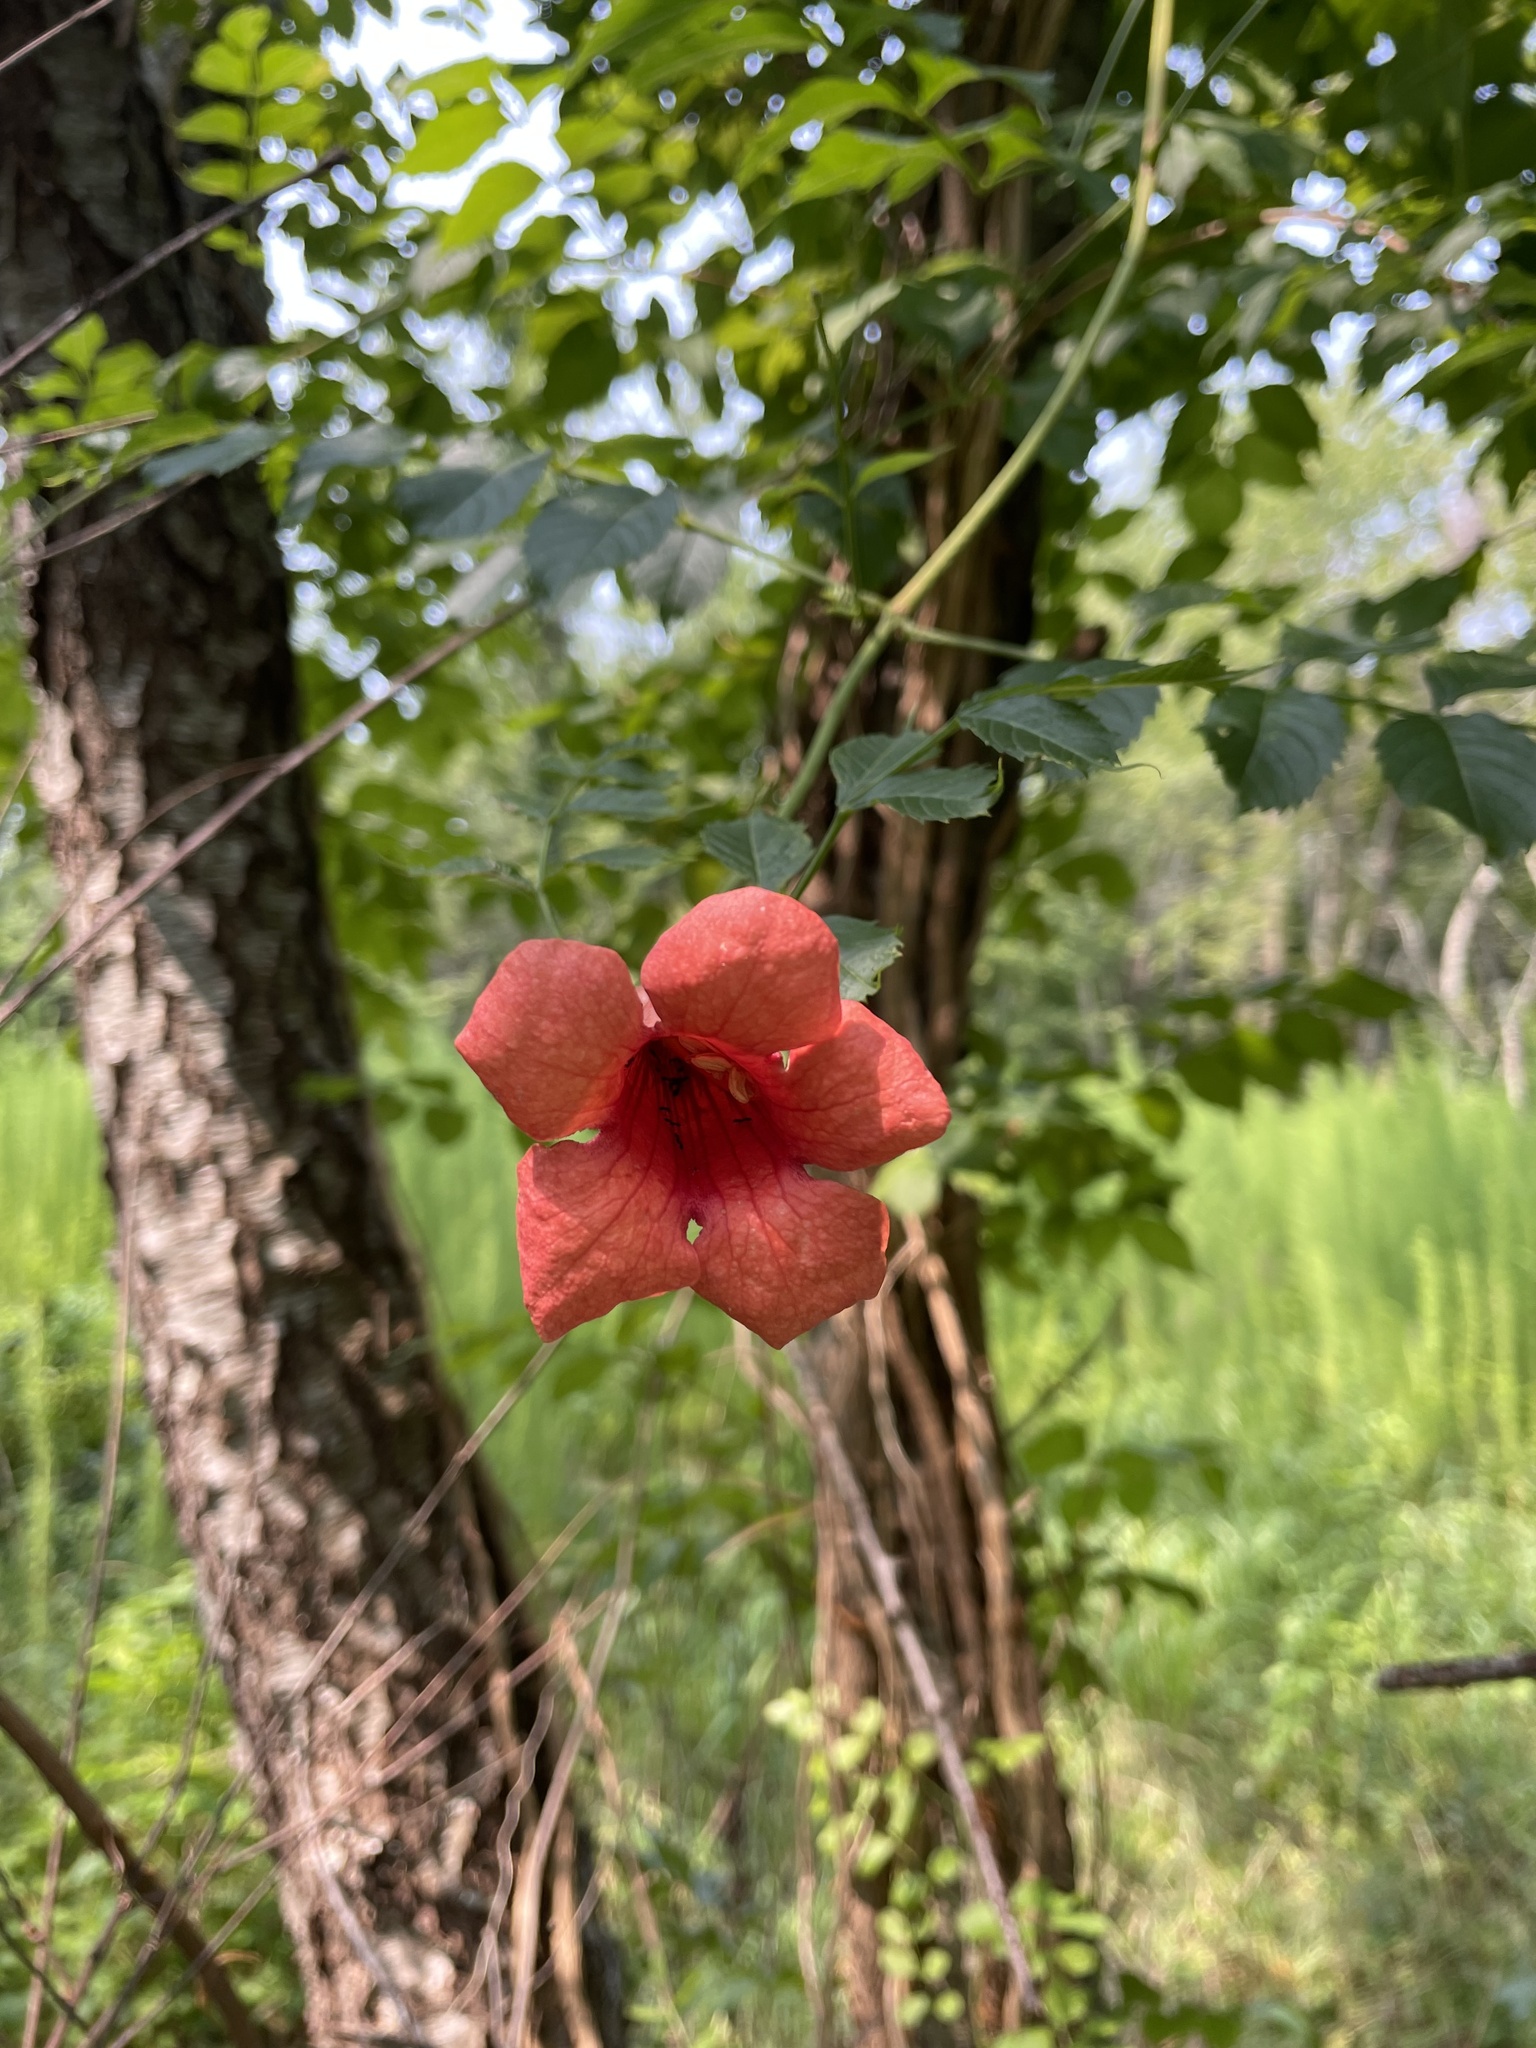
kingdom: Plantae
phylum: Tracheophyta
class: Magnoliopsida
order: Lamiales
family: Bignoniaceae
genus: Campsis
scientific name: Campsis radicans
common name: Trumpet-creeper
